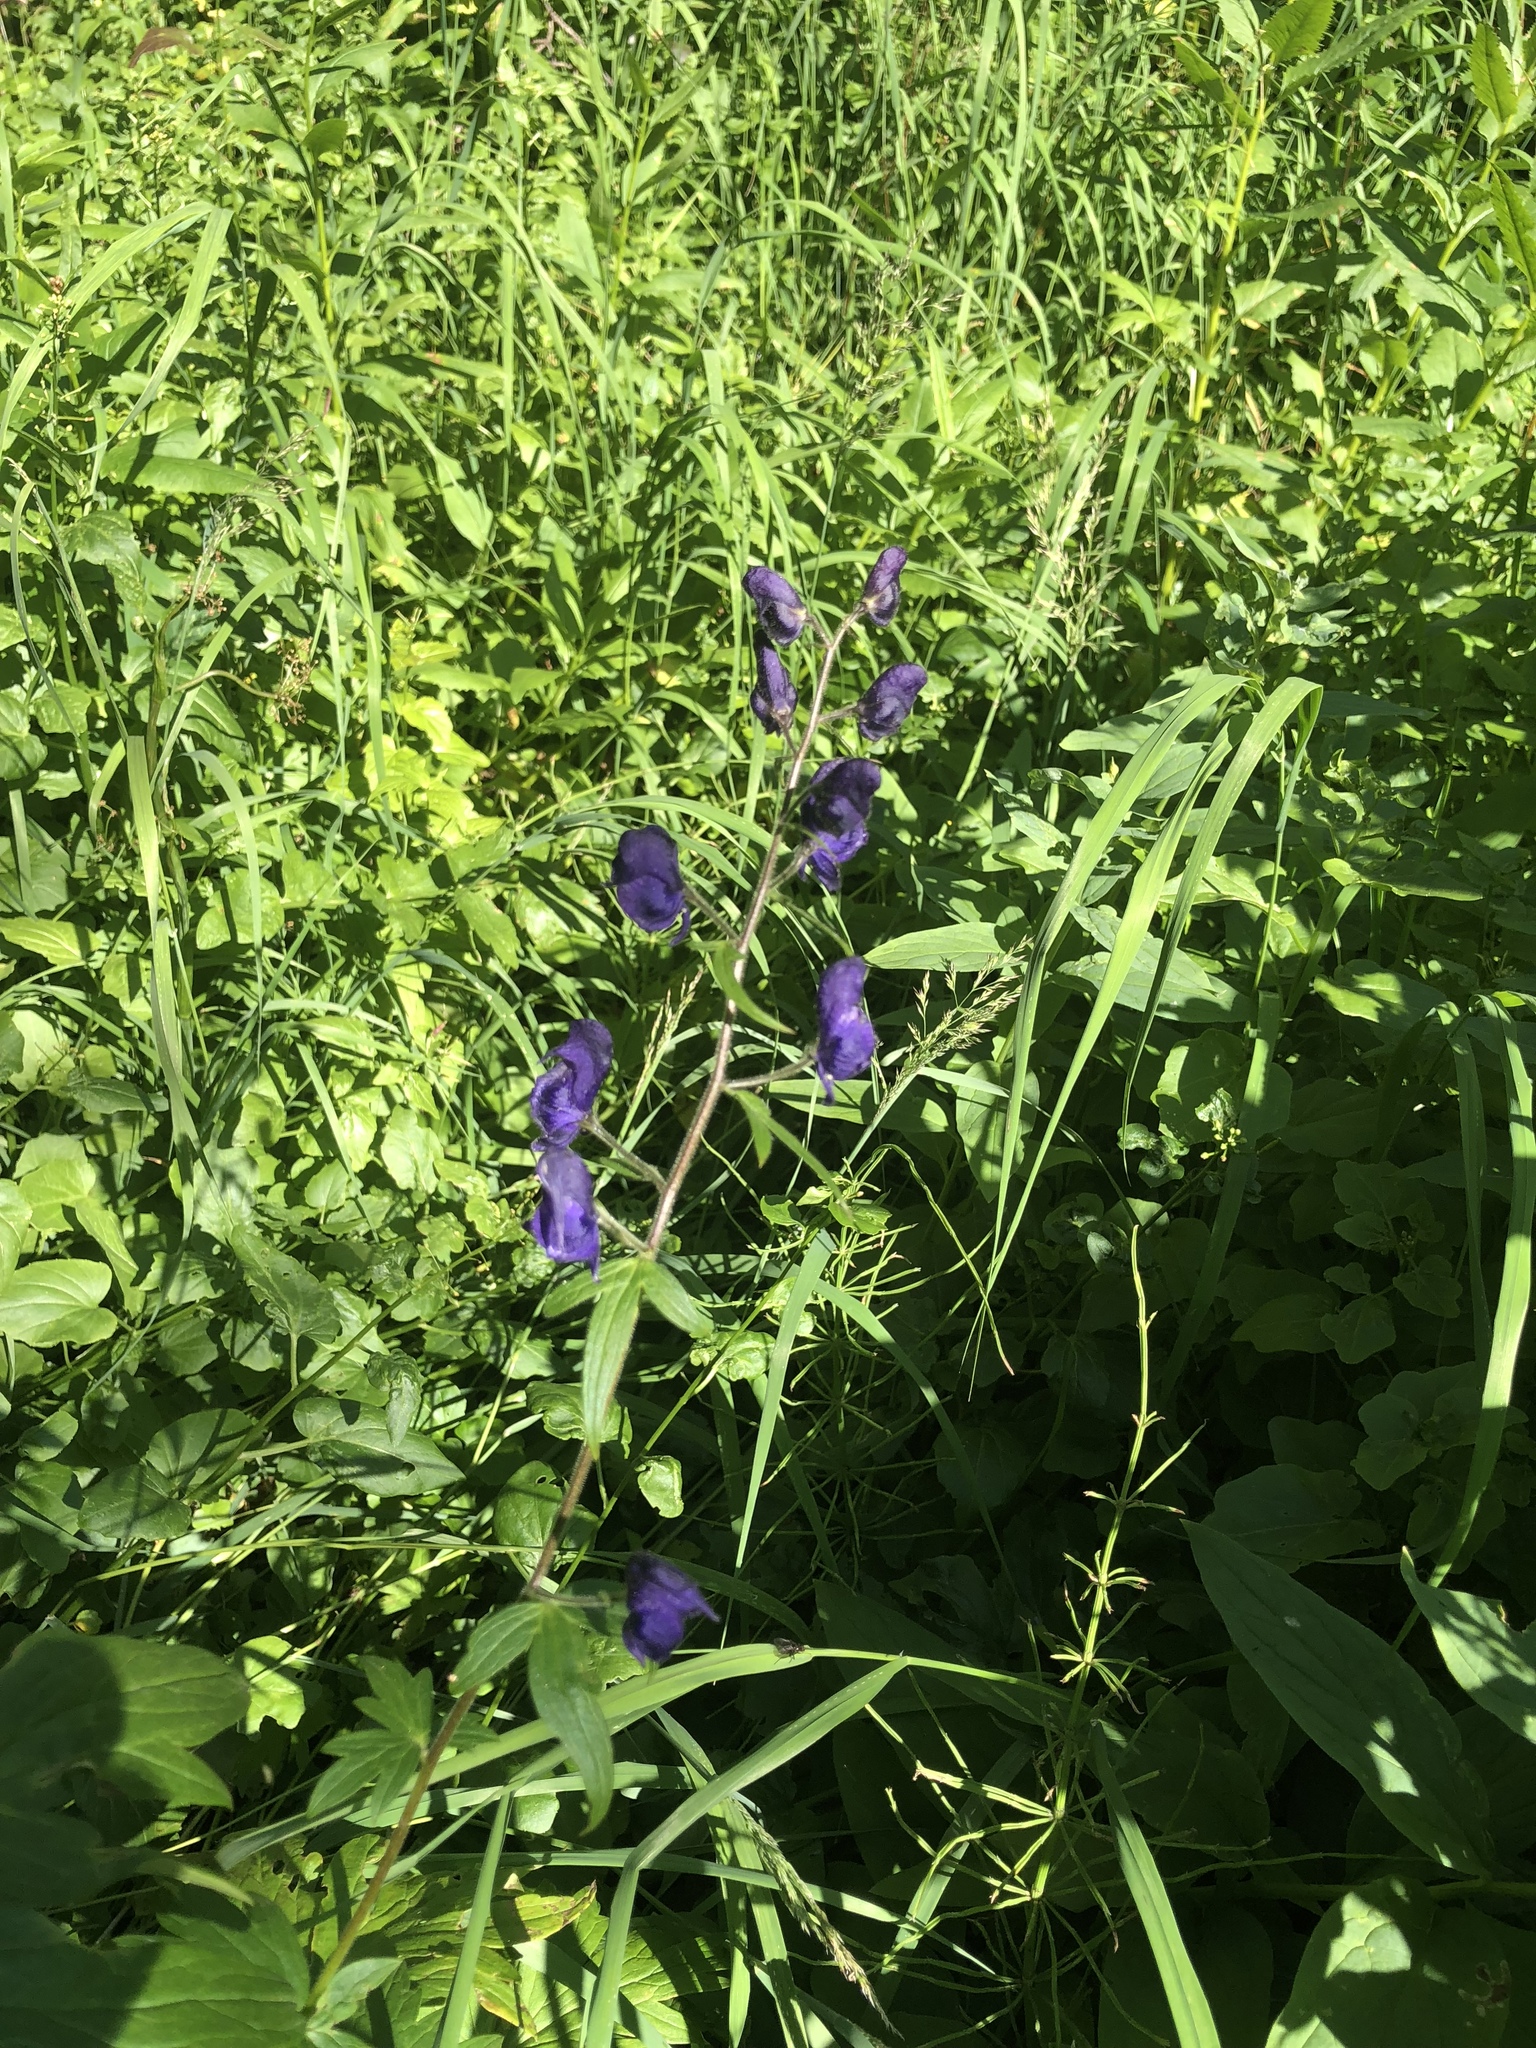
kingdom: Plantae
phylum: Tracheophyta
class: Magnoliopsida
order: Ranunculales
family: Ranunculaceae
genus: Aconitum
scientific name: Aconitum columbianum
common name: Columbia aconite
